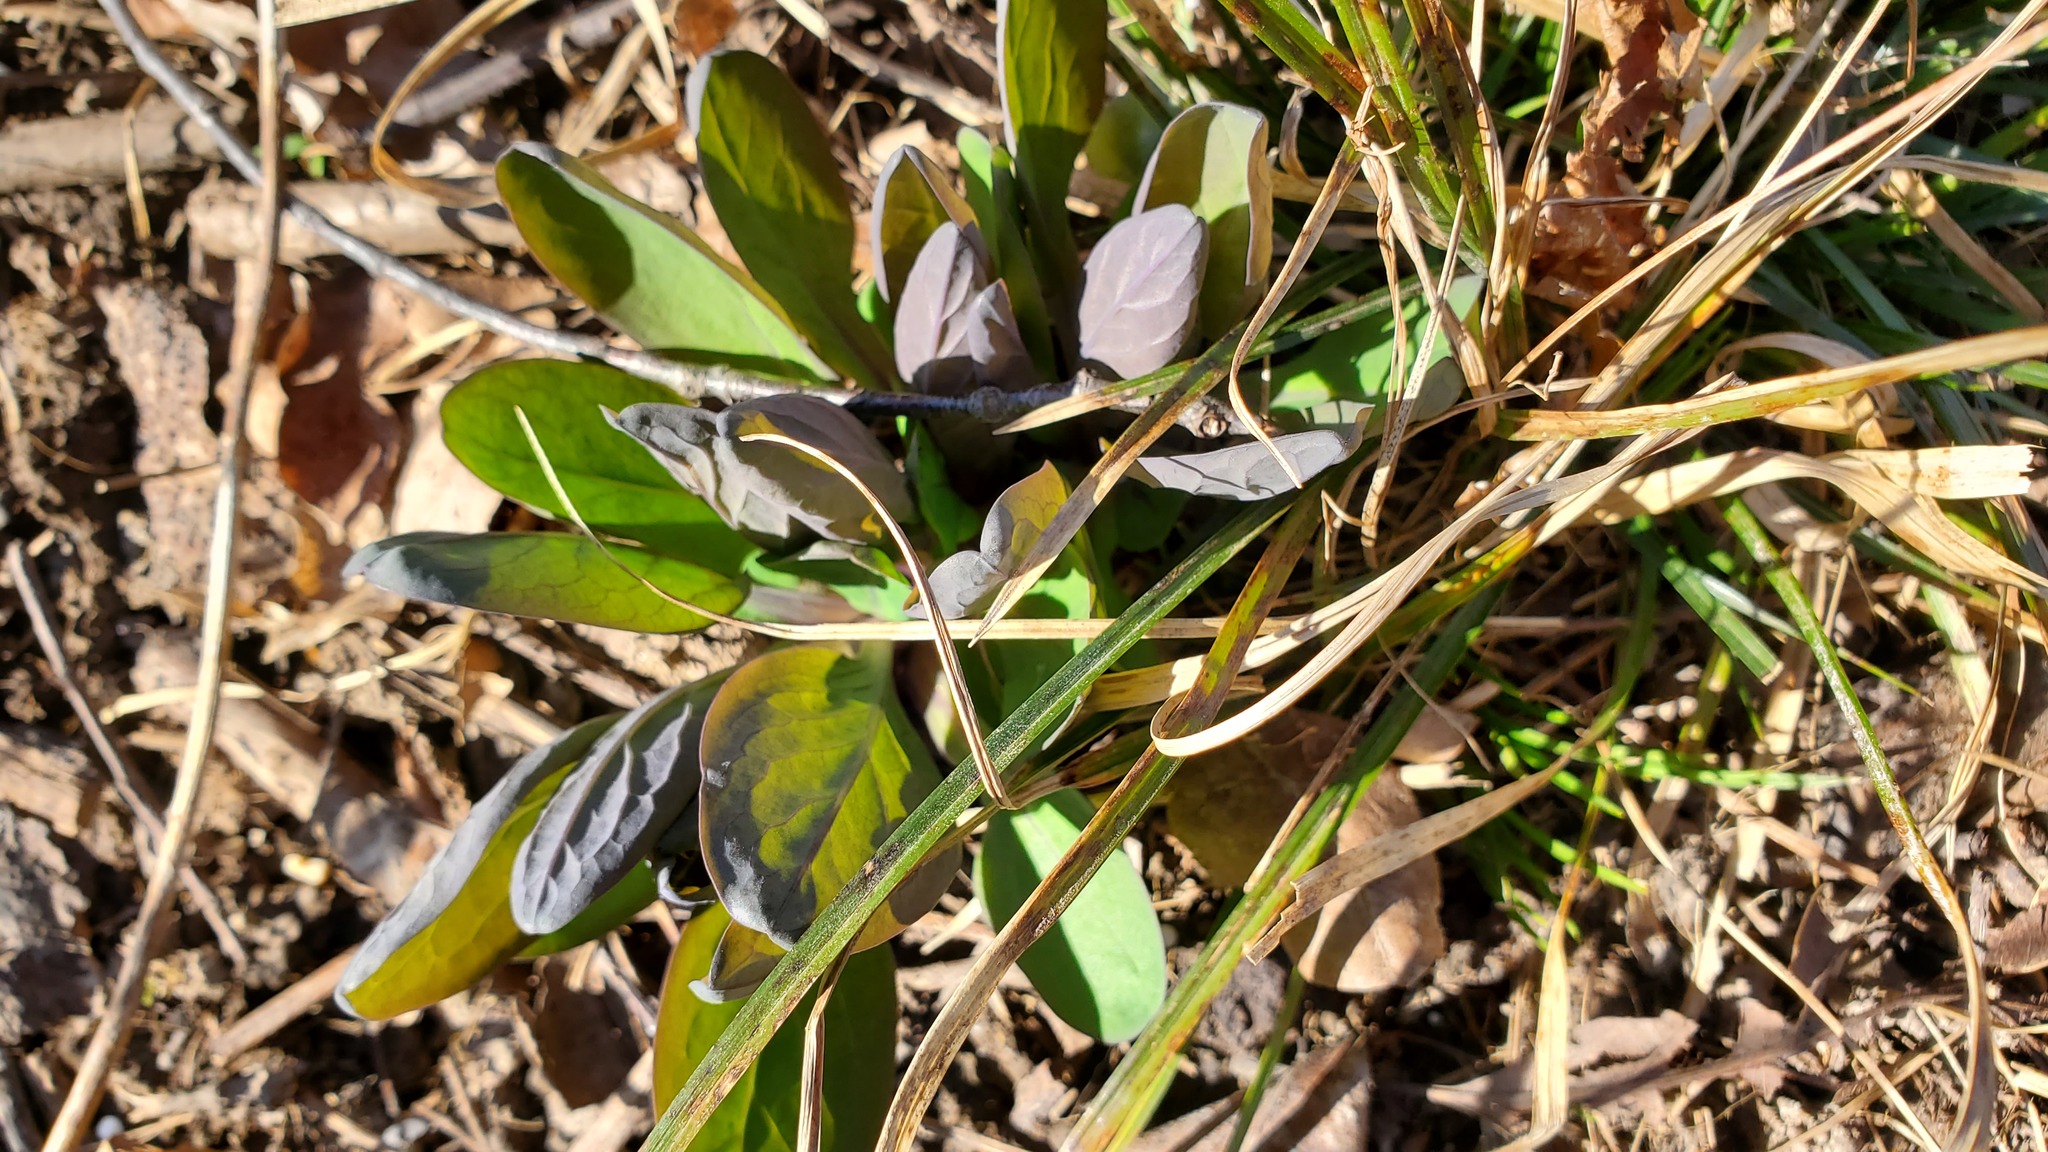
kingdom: Plantae
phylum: Tracheophyta
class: Magnoliopsida
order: Boraginales
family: Boraginaceae
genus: Mertensia
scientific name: Mertensia virginica
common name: Virginia bluebells
